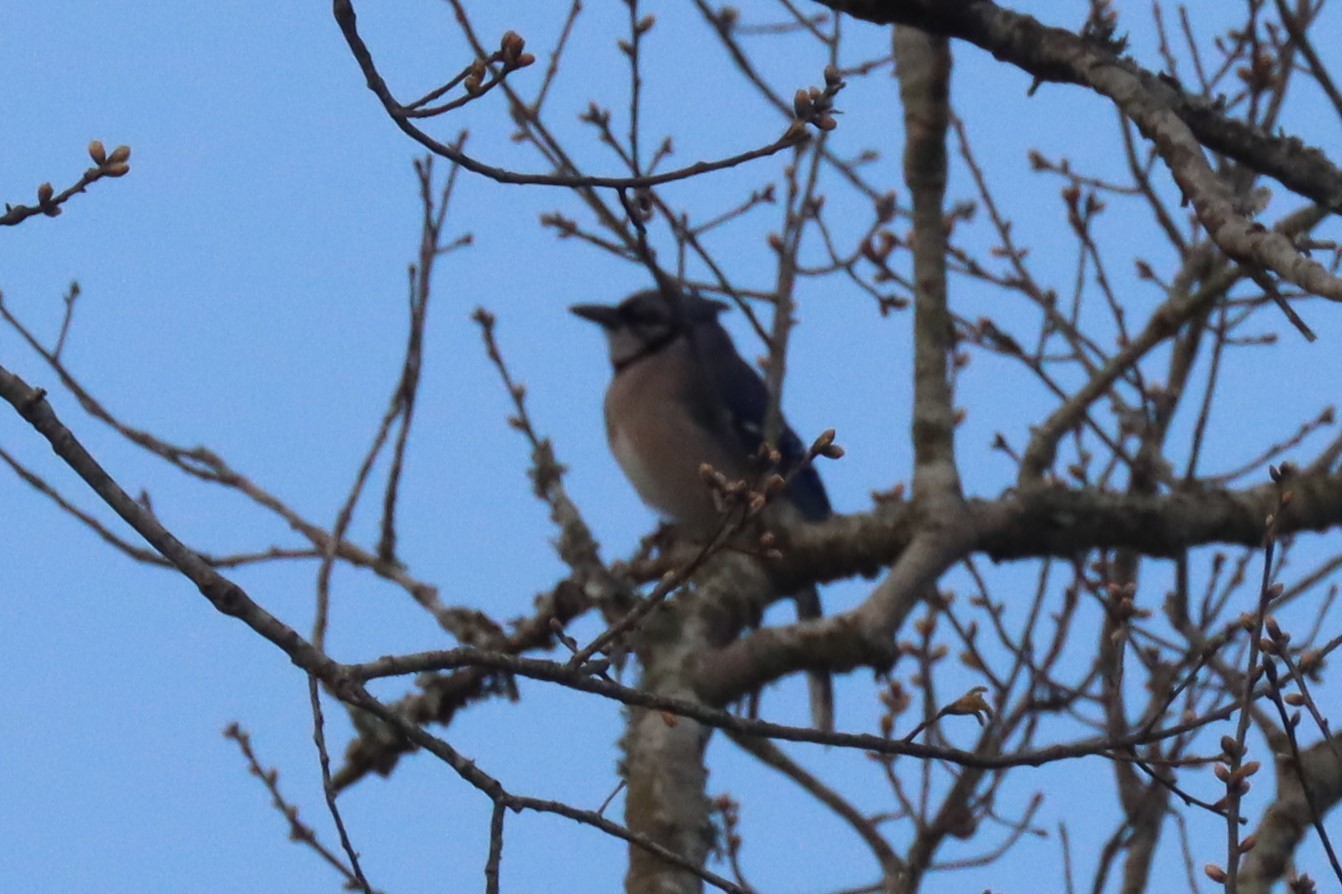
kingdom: Animalia
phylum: Chordata
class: Aves
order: Passeriformes
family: Corvidae
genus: Cyanocitta
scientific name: Cyanocitta cristata
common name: Blue jay
